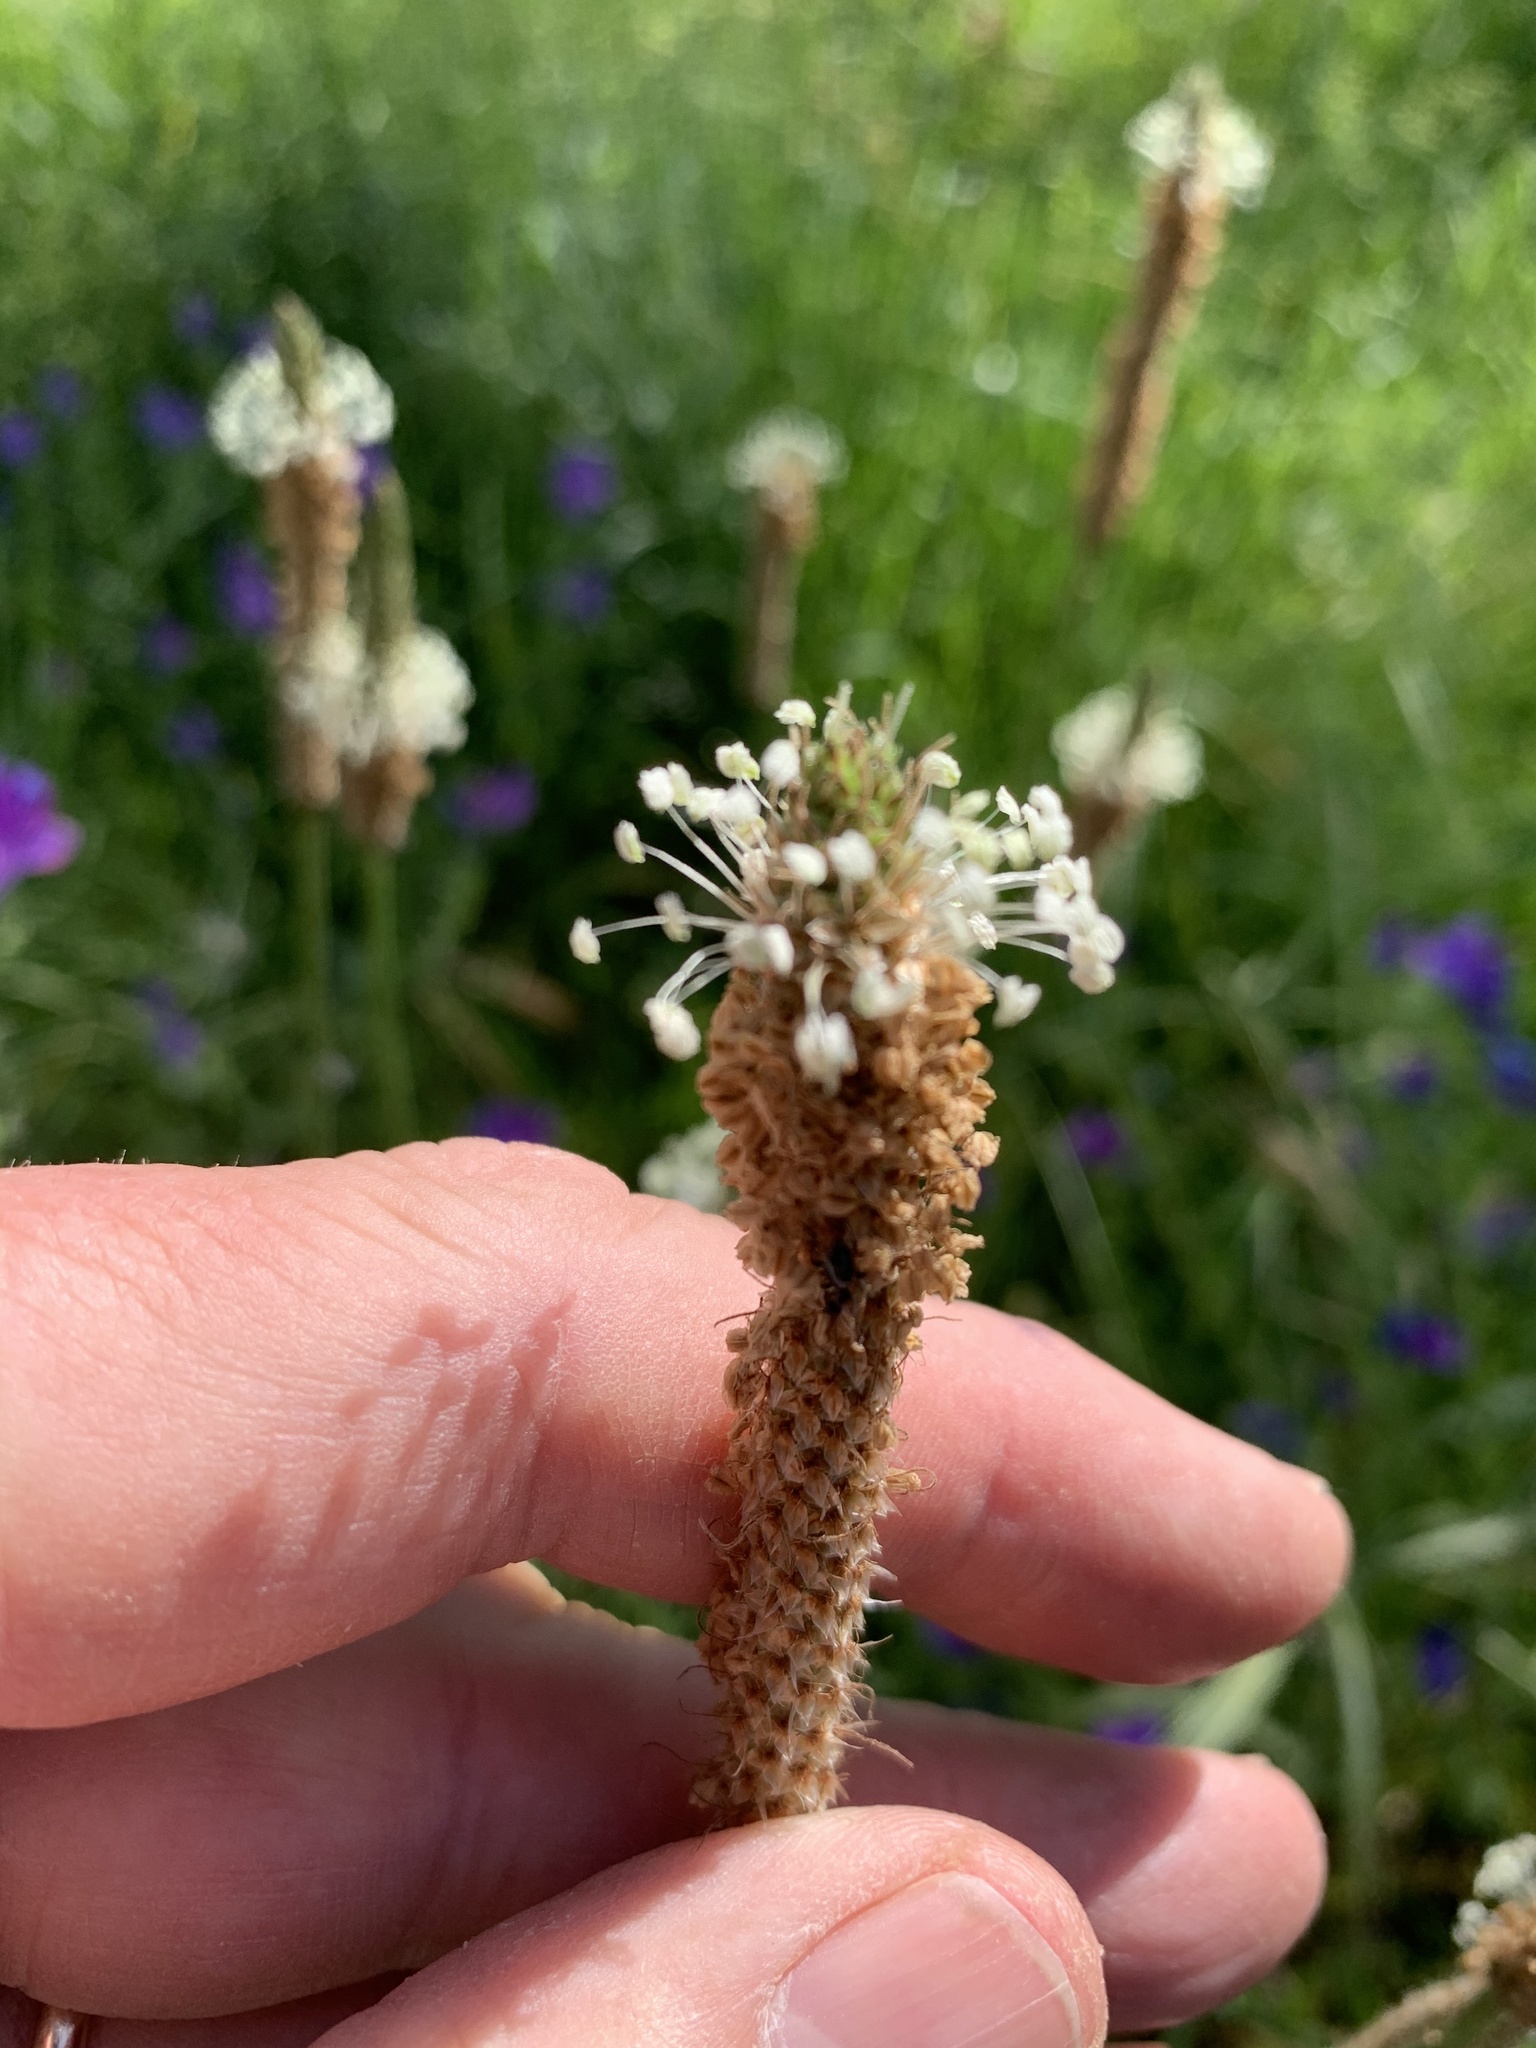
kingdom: Plantae
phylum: Tracheophyta
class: Magnoliopsida
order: Lamiales
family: Plantaginaceae
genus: Plantago
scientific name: Plantago lanceolata
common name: Ribwort plantain
